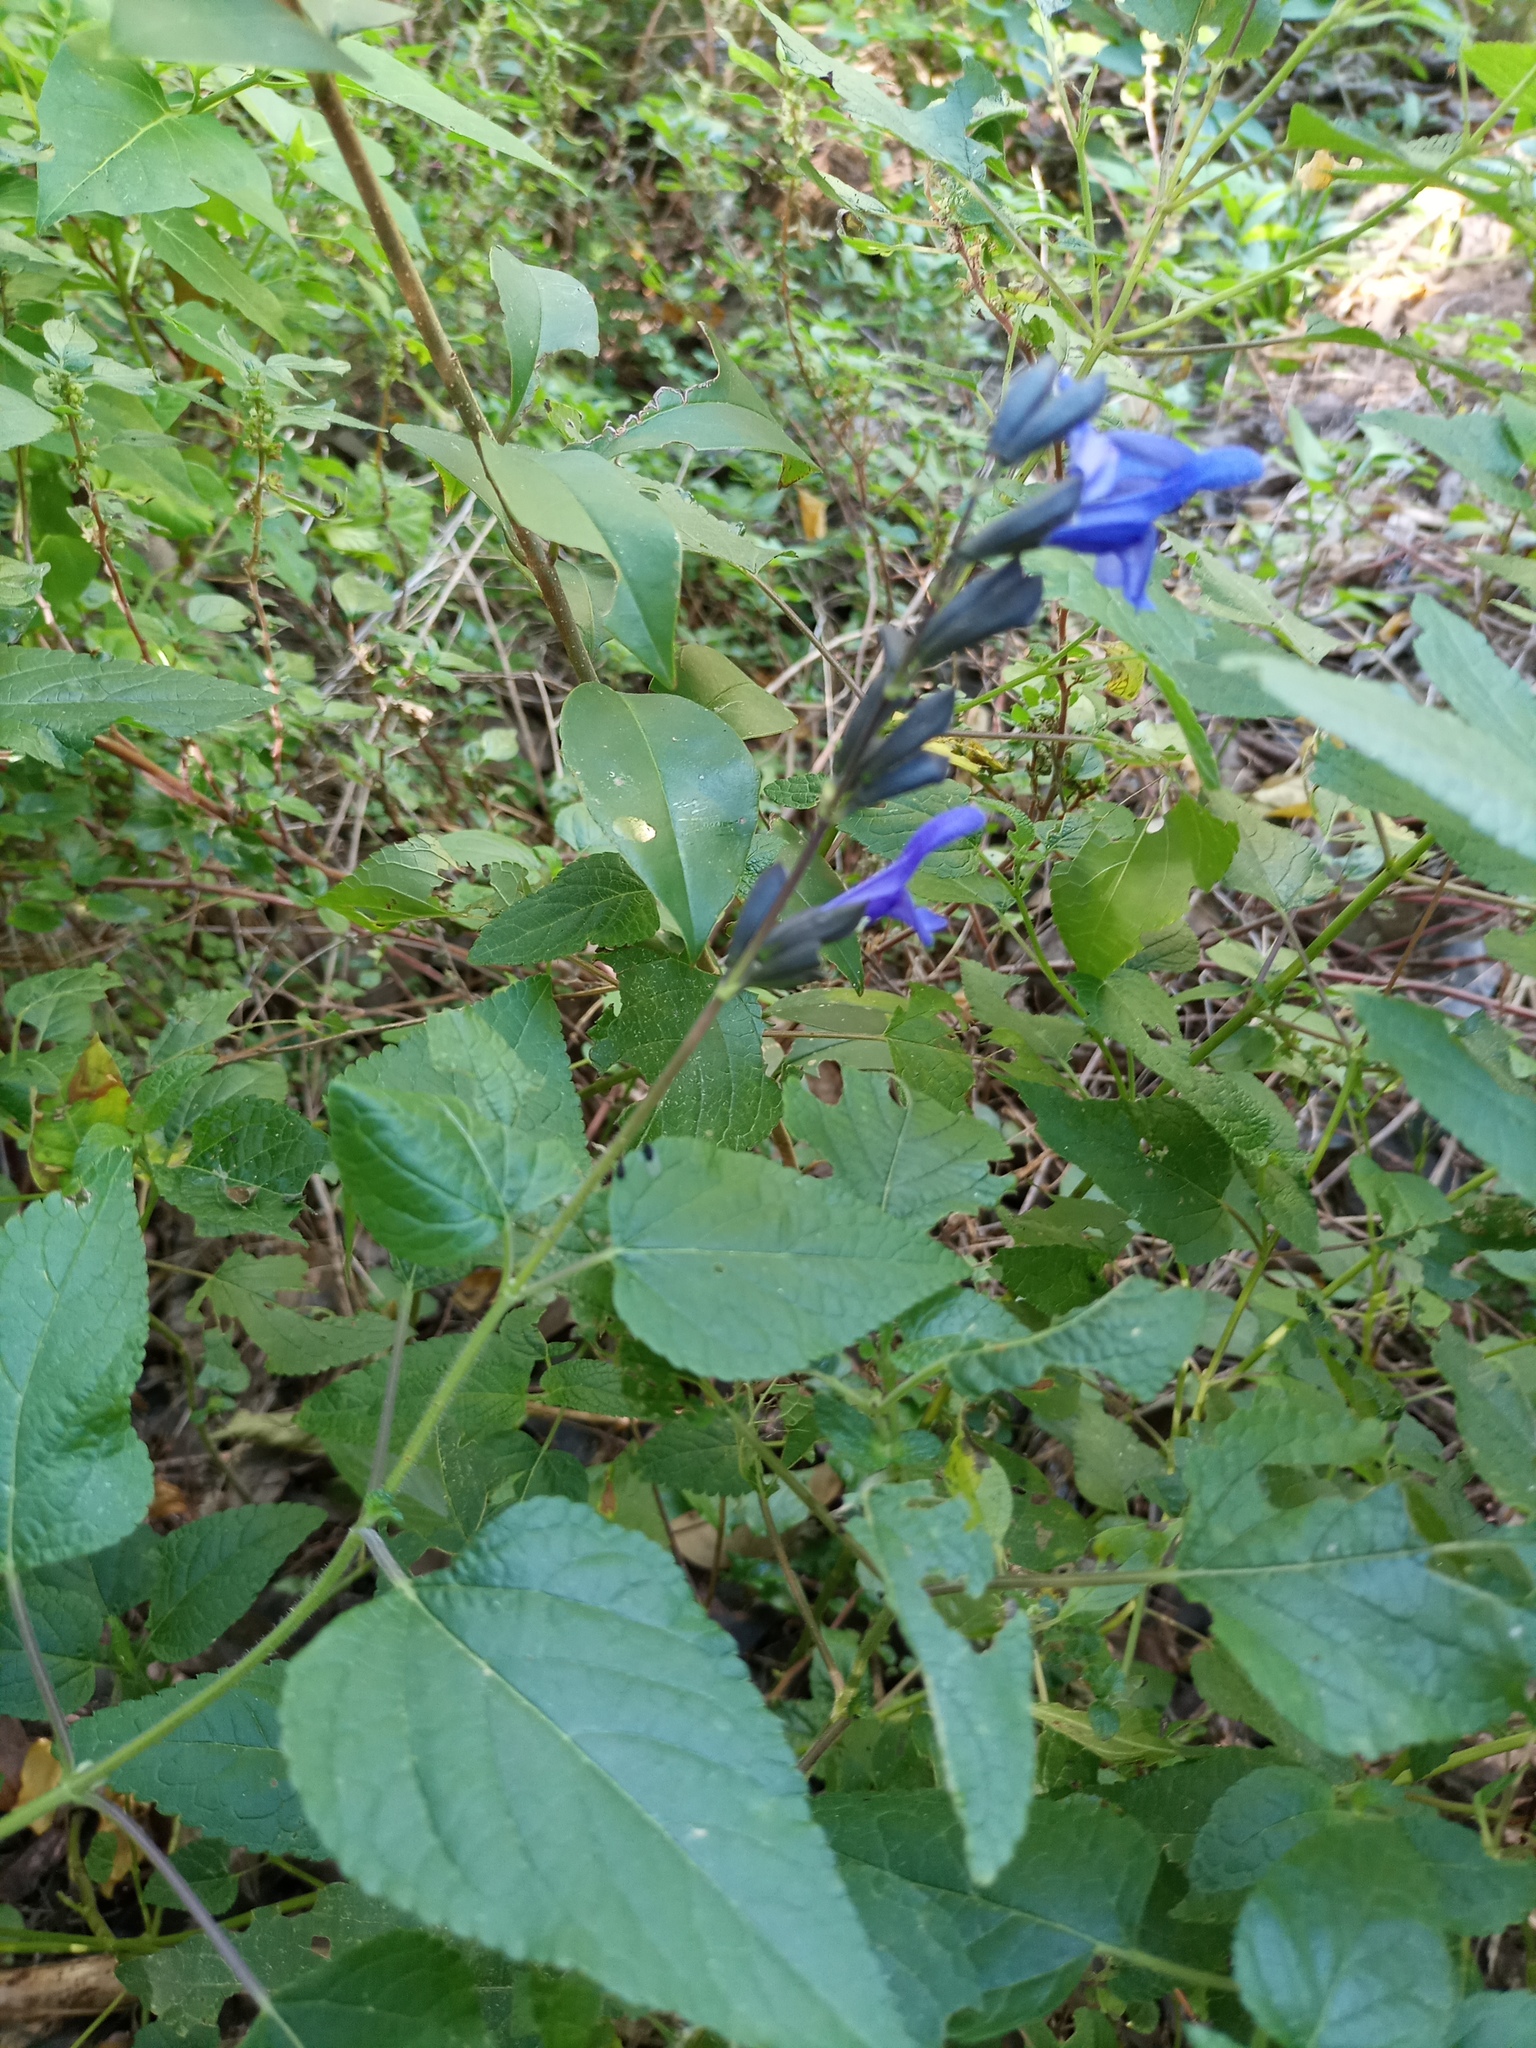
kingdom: Plantae
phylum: Tracheophyta
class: Magnoliopsida
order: Lamiales
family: Lamiaceae
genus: Salvia
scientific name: Salvia guaranitica
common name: Anise-scented sage
